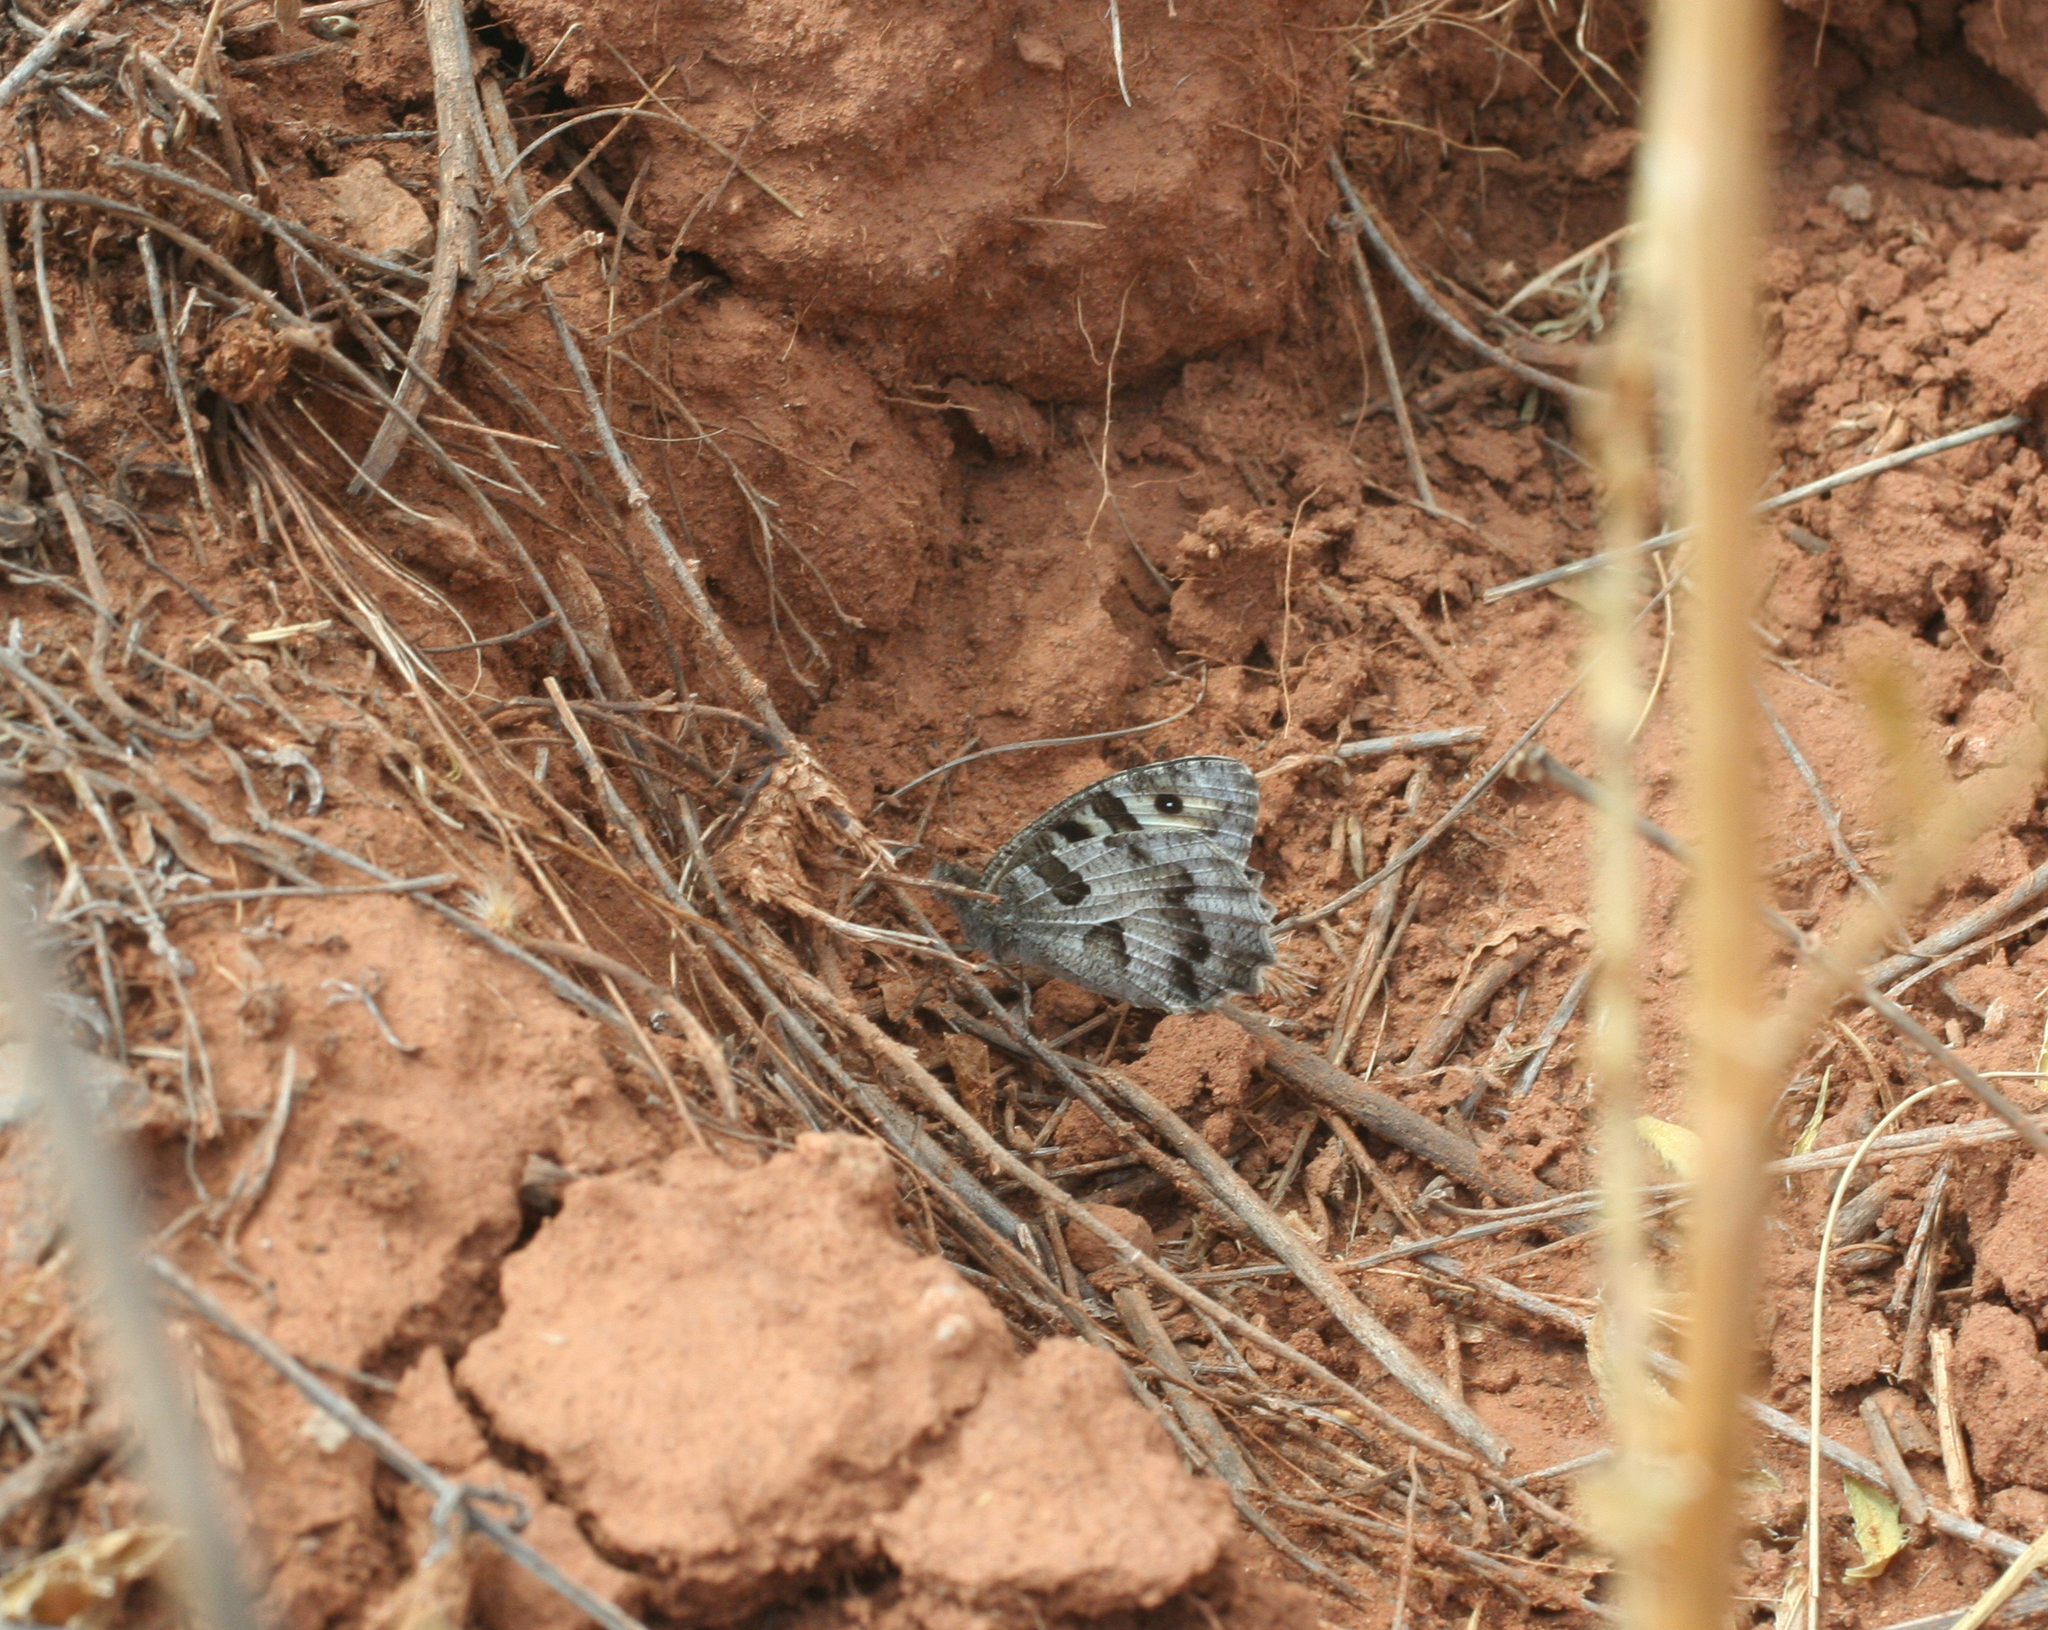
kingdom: Animalia
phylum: Arthropoda
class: Insecta
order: Lepidoptera
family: Nymphalidae
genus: Satyrus
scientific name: Satyrus briseis
